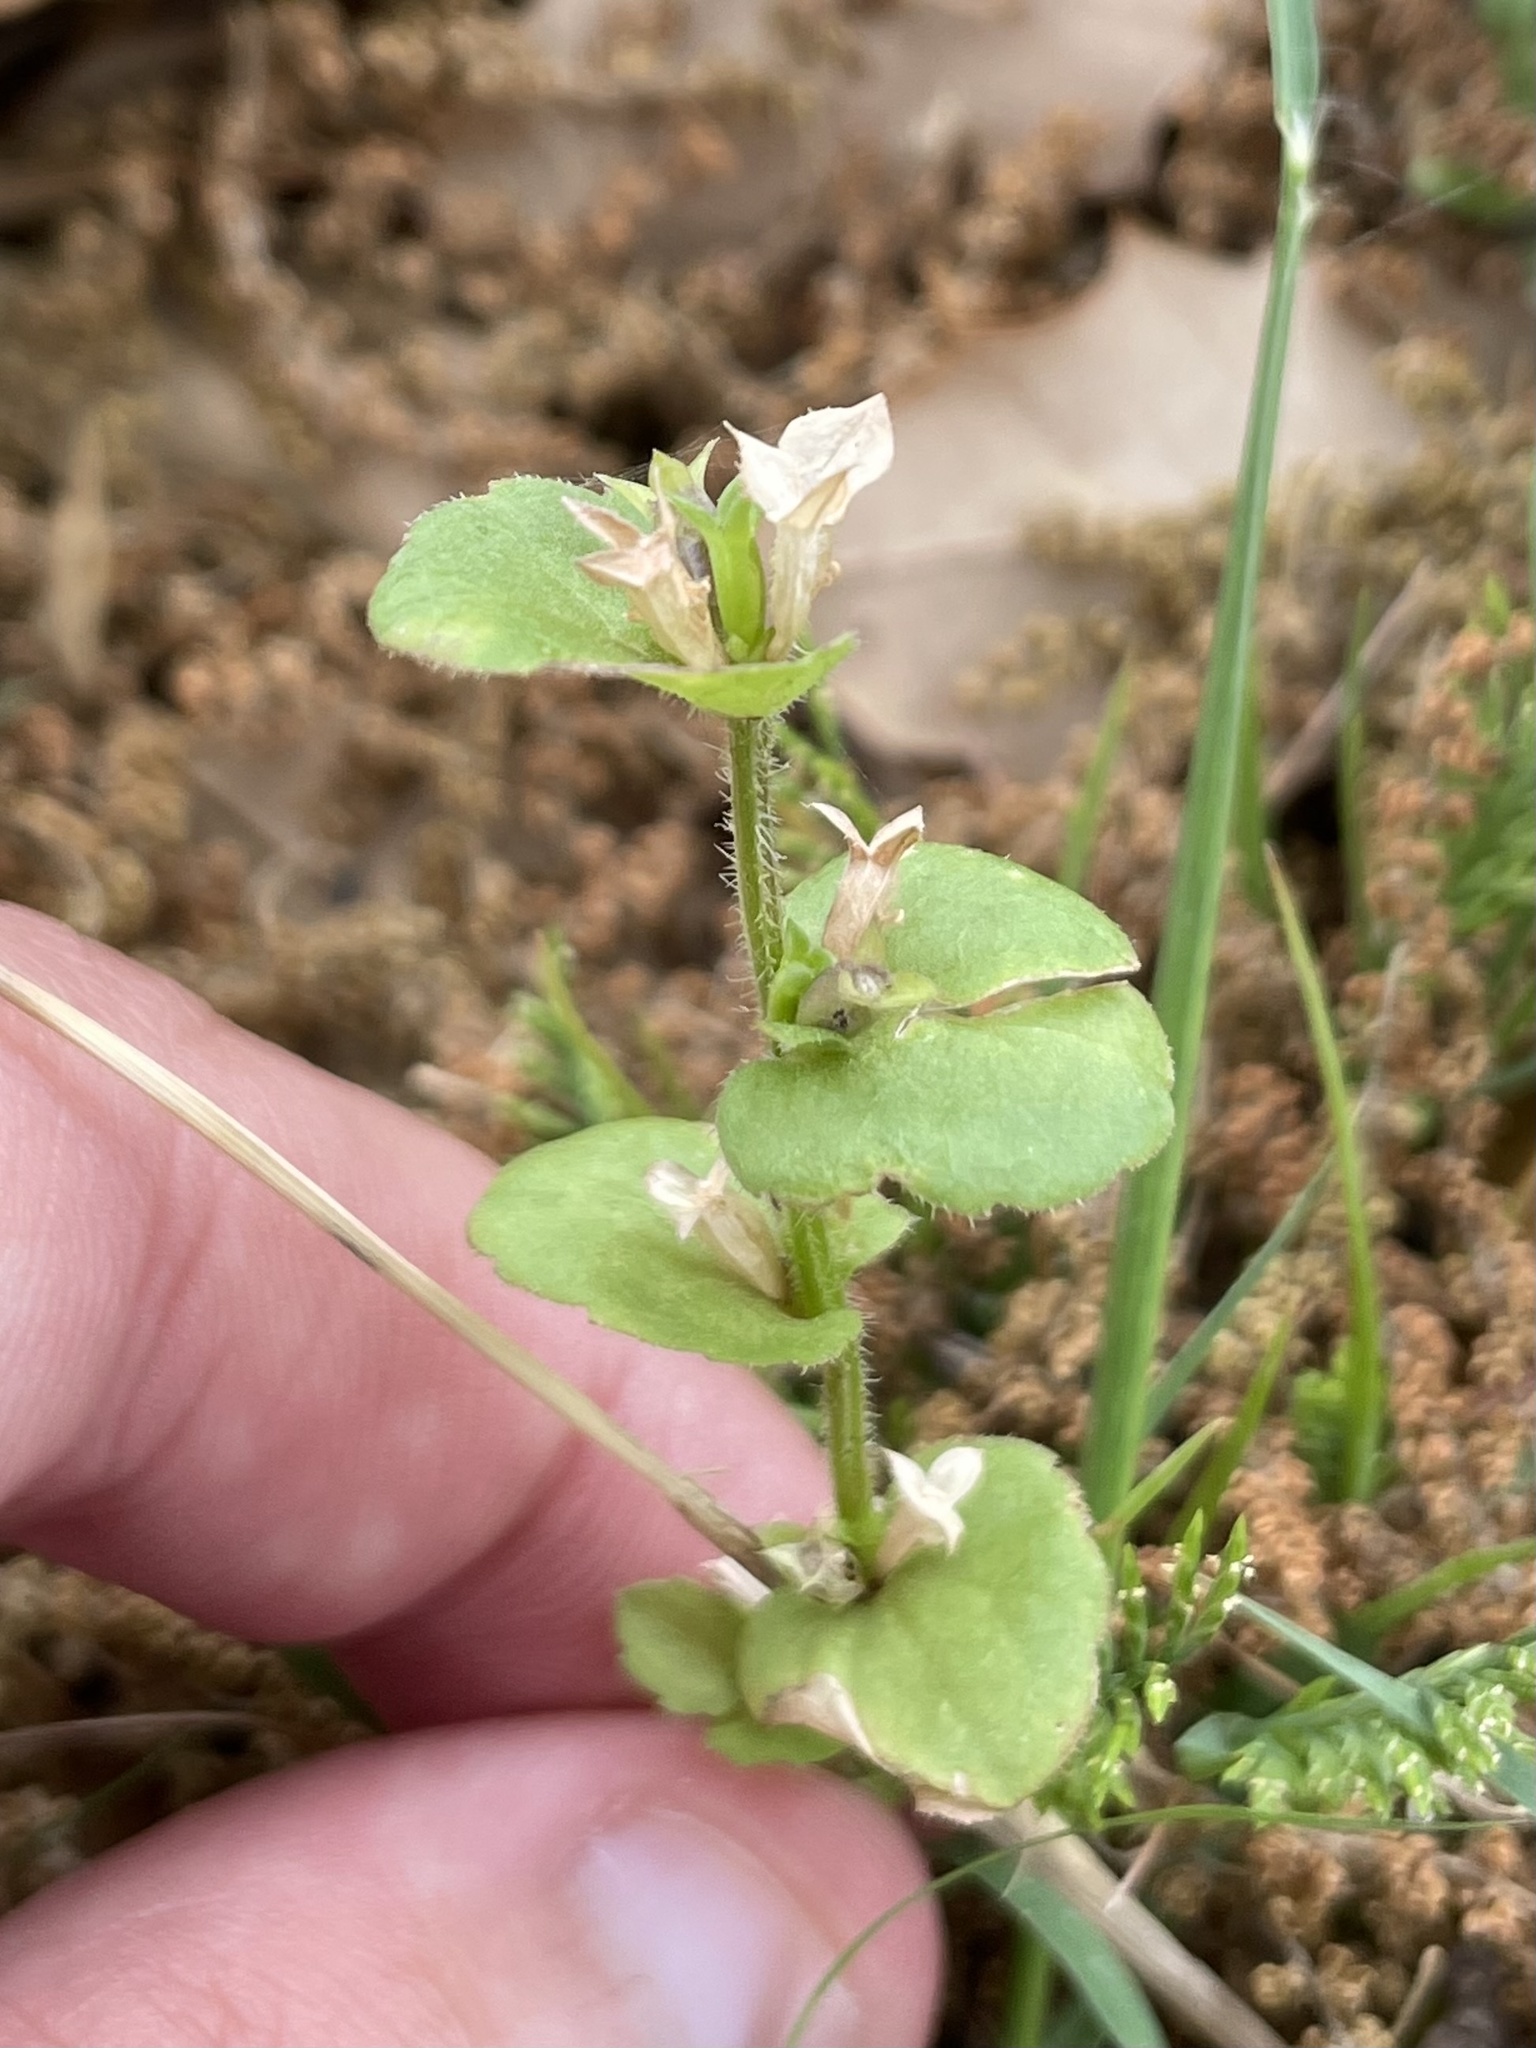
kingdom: Plantae
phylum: Tracheophyta
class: Magnoliopsida
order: Asterales
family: Campanulaceae
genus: Triodanis
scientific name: Triodanis lamprosperma
